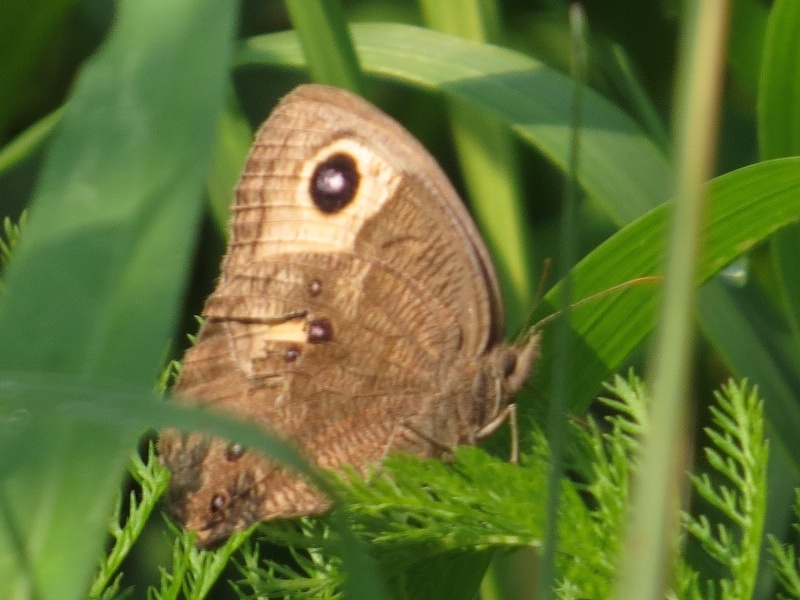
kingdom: Animalia
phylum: Arthropoda
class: Insecta
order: Lepidoptera
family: Nymphalidae
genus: Cercyonis
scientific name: Cercyonis pegala
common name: Common wood-nymph
